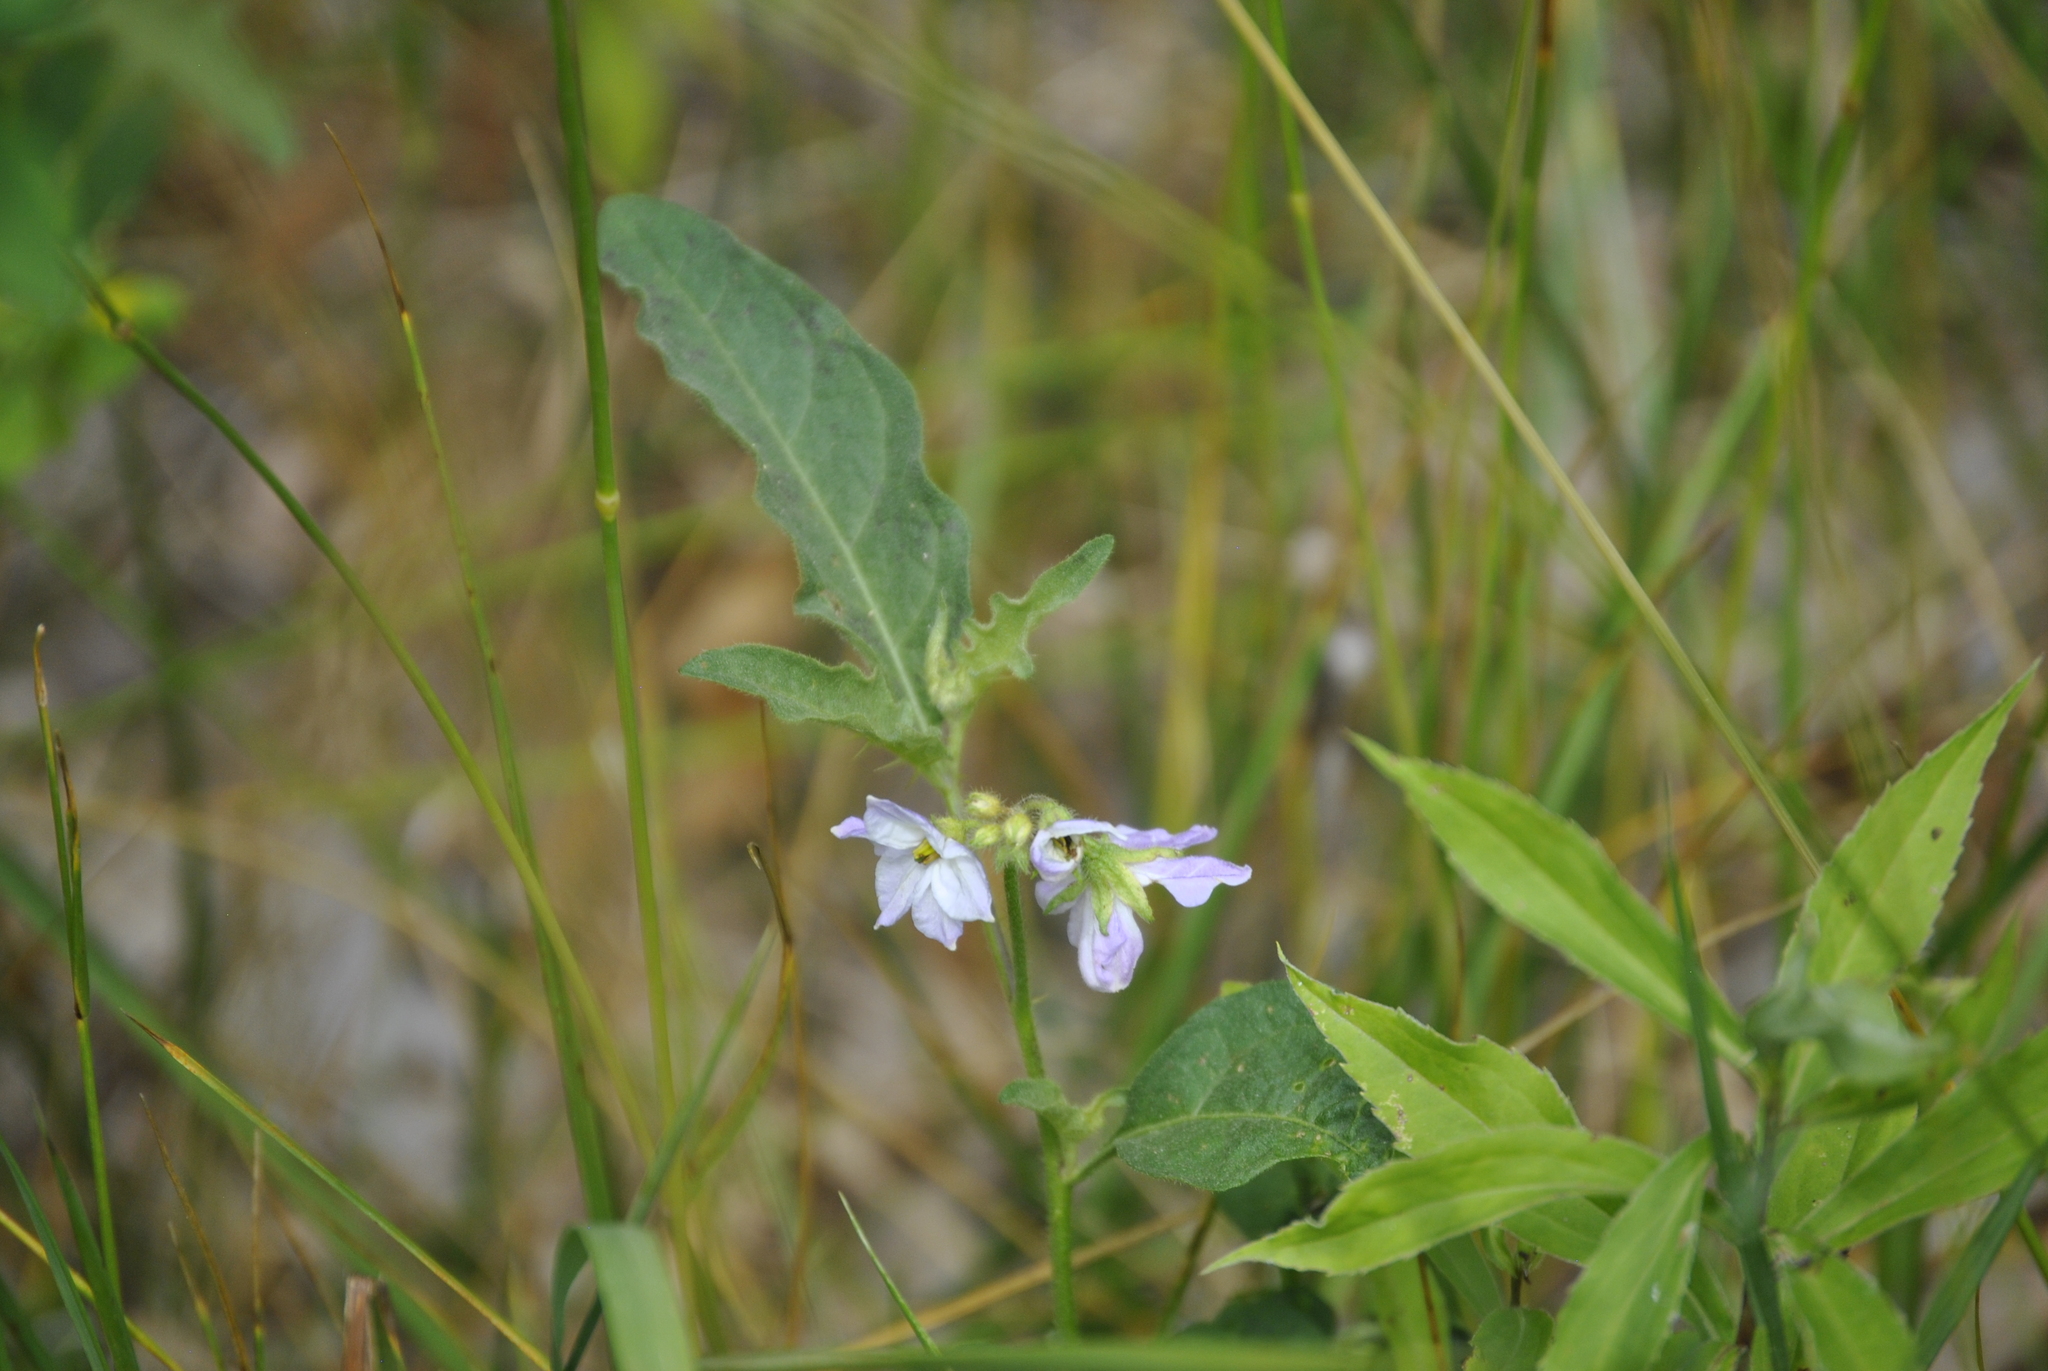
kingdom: Plantae
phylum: Tracheophyta
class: Magnoliopsida
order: Solanales
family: Solanaceae
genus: Solanum
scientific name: Solanum carolinense
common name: Horse-nettle
